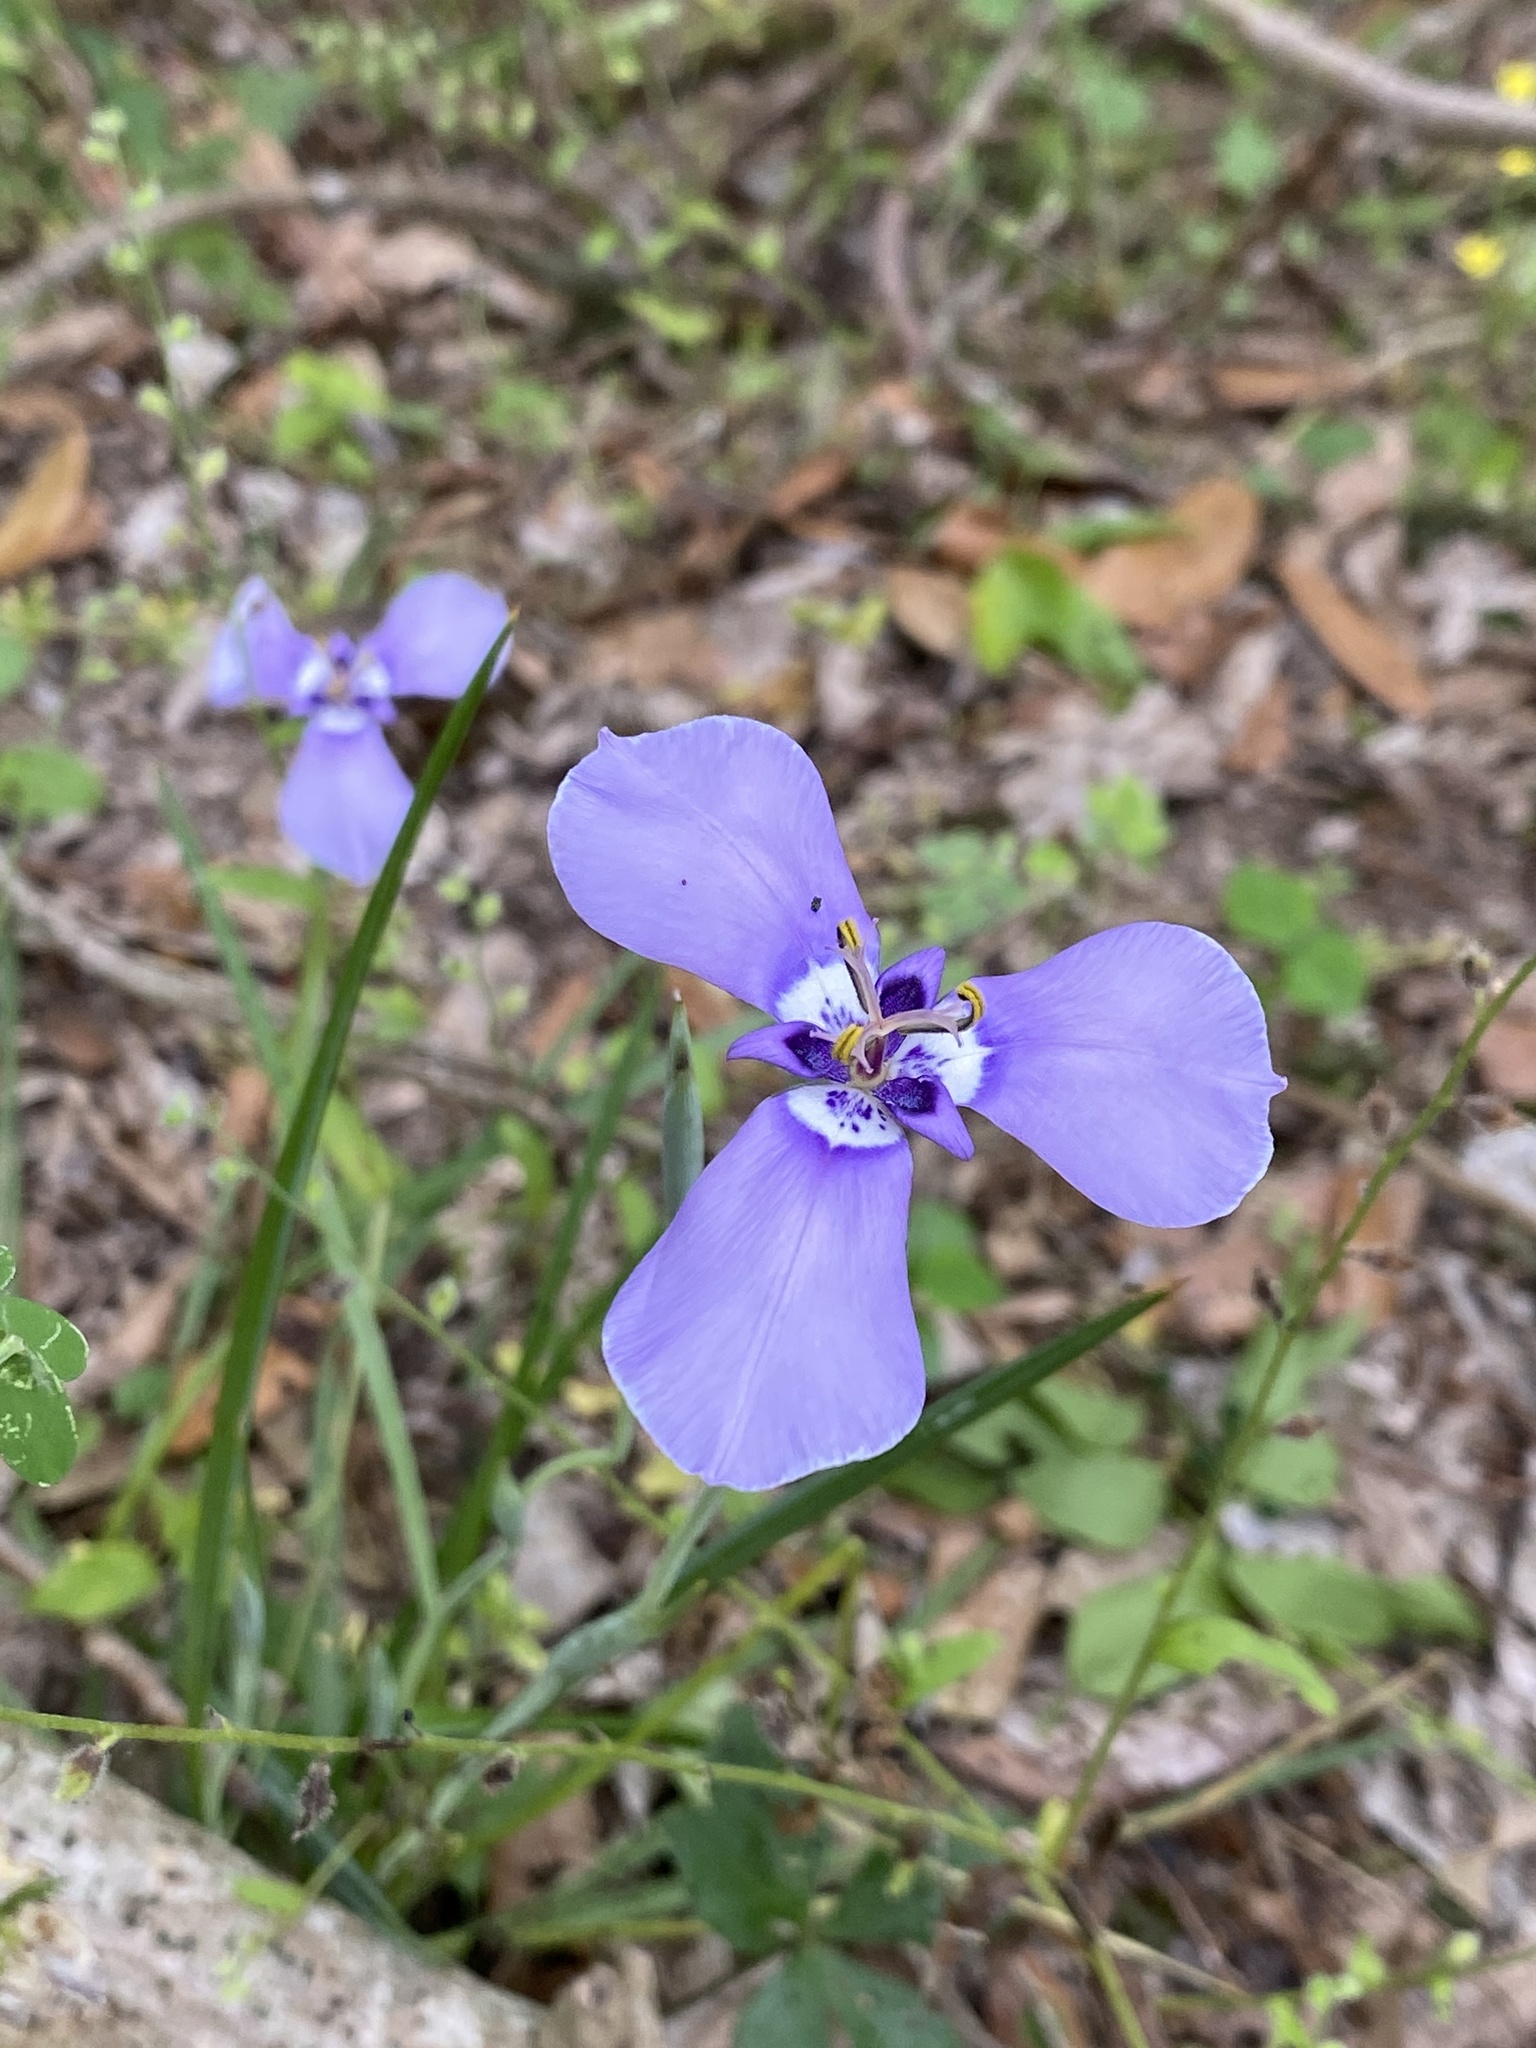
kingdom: Plantae
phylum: Tracheophyta
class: Liliopsida
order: Asparagales
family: Iridaceae
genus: Herbertia
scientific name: Herbertia lahue
